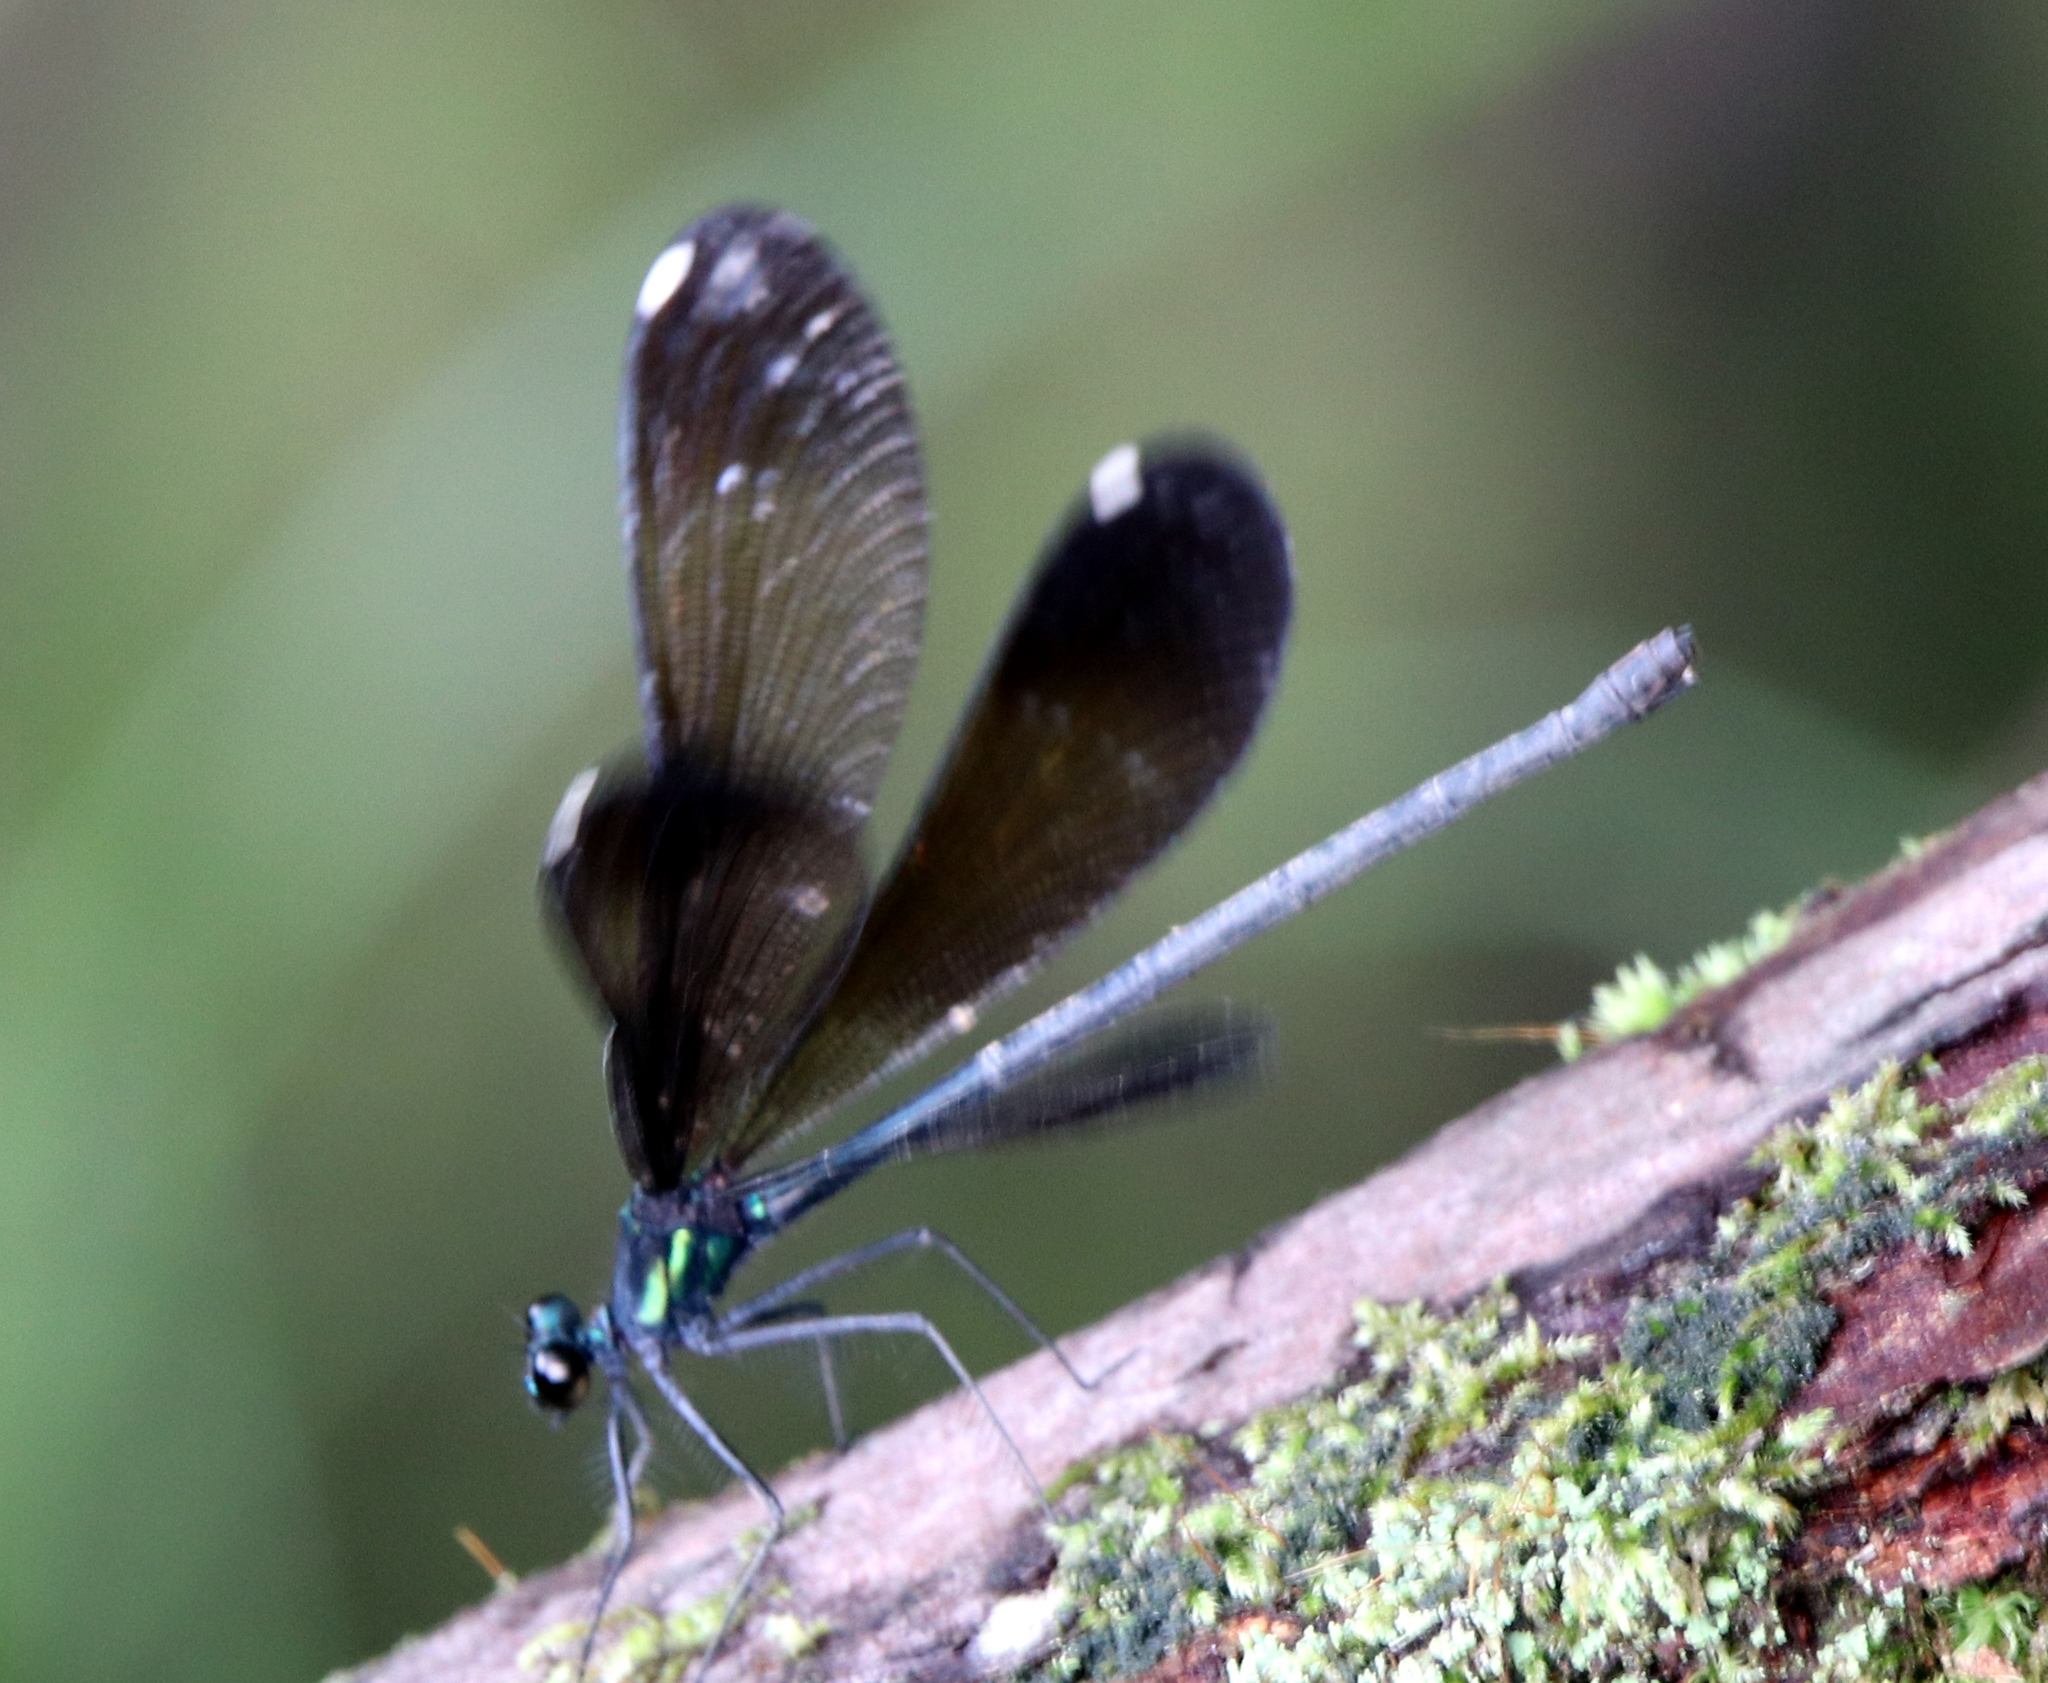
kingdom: Animalia
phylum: Arthropoda
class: Insecta
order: Odonata
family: Calopterygidae
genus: Calopteryx
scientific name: Calopteryx maculata
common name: Ebony jewelwing
